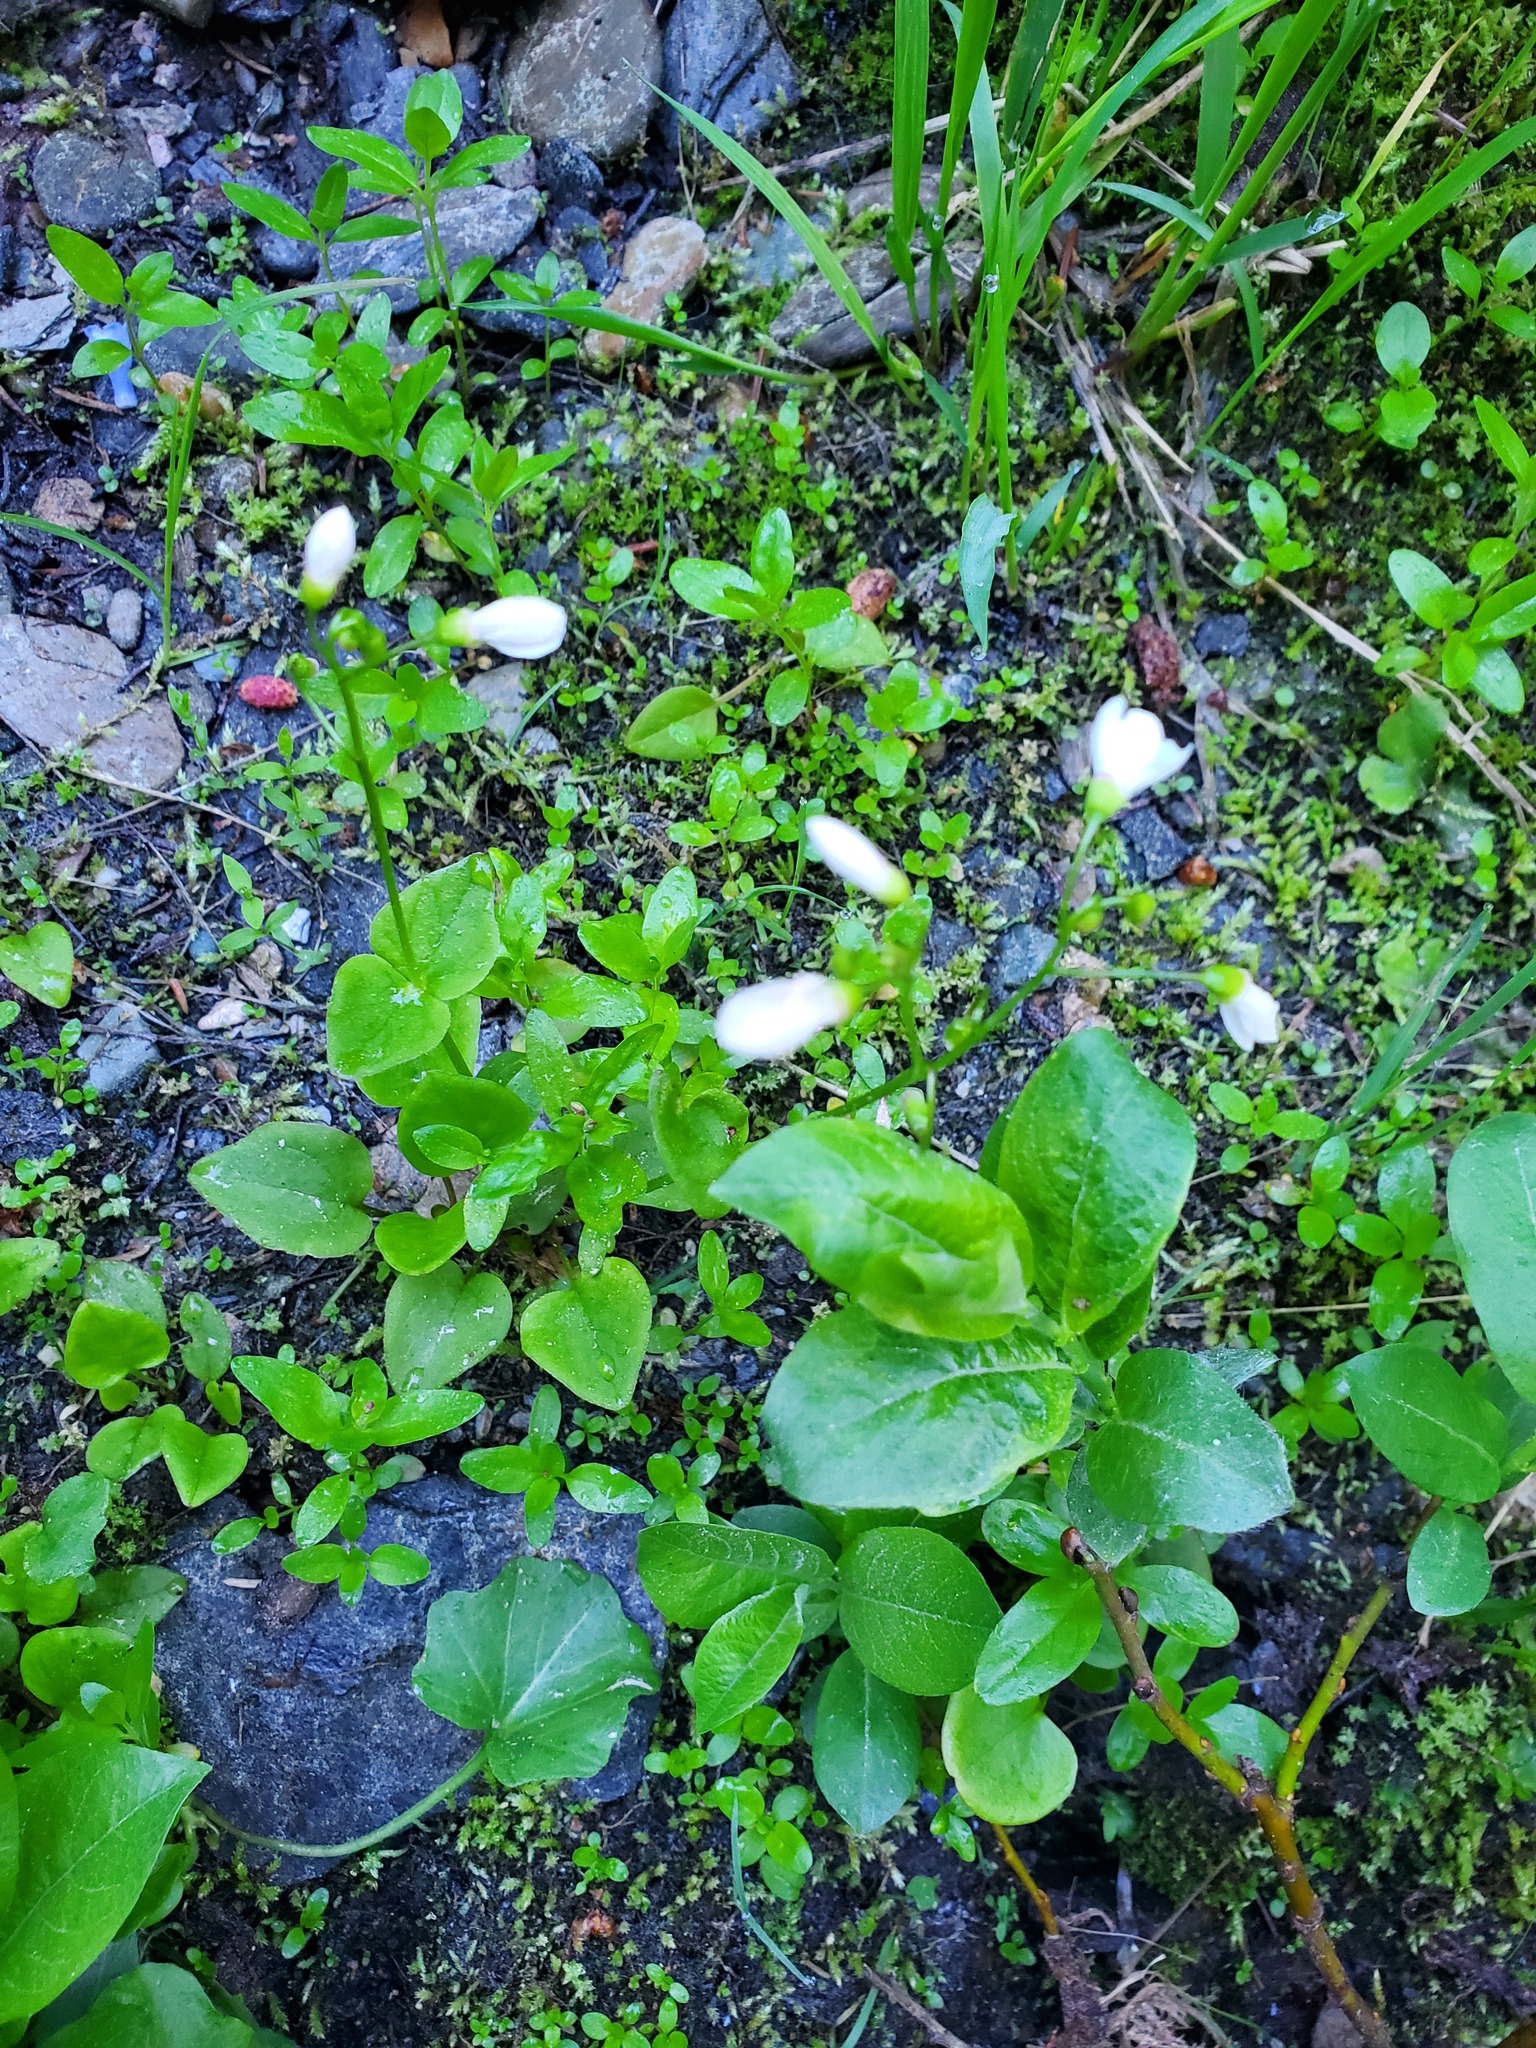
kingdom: Plantae
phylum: Tracheophyta
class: Magnoliopsida
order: Caryophyllales
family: Montiaceae
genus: Claytonia
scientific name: Claytonia cordifolia
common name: Broad-leaved spring beauty
